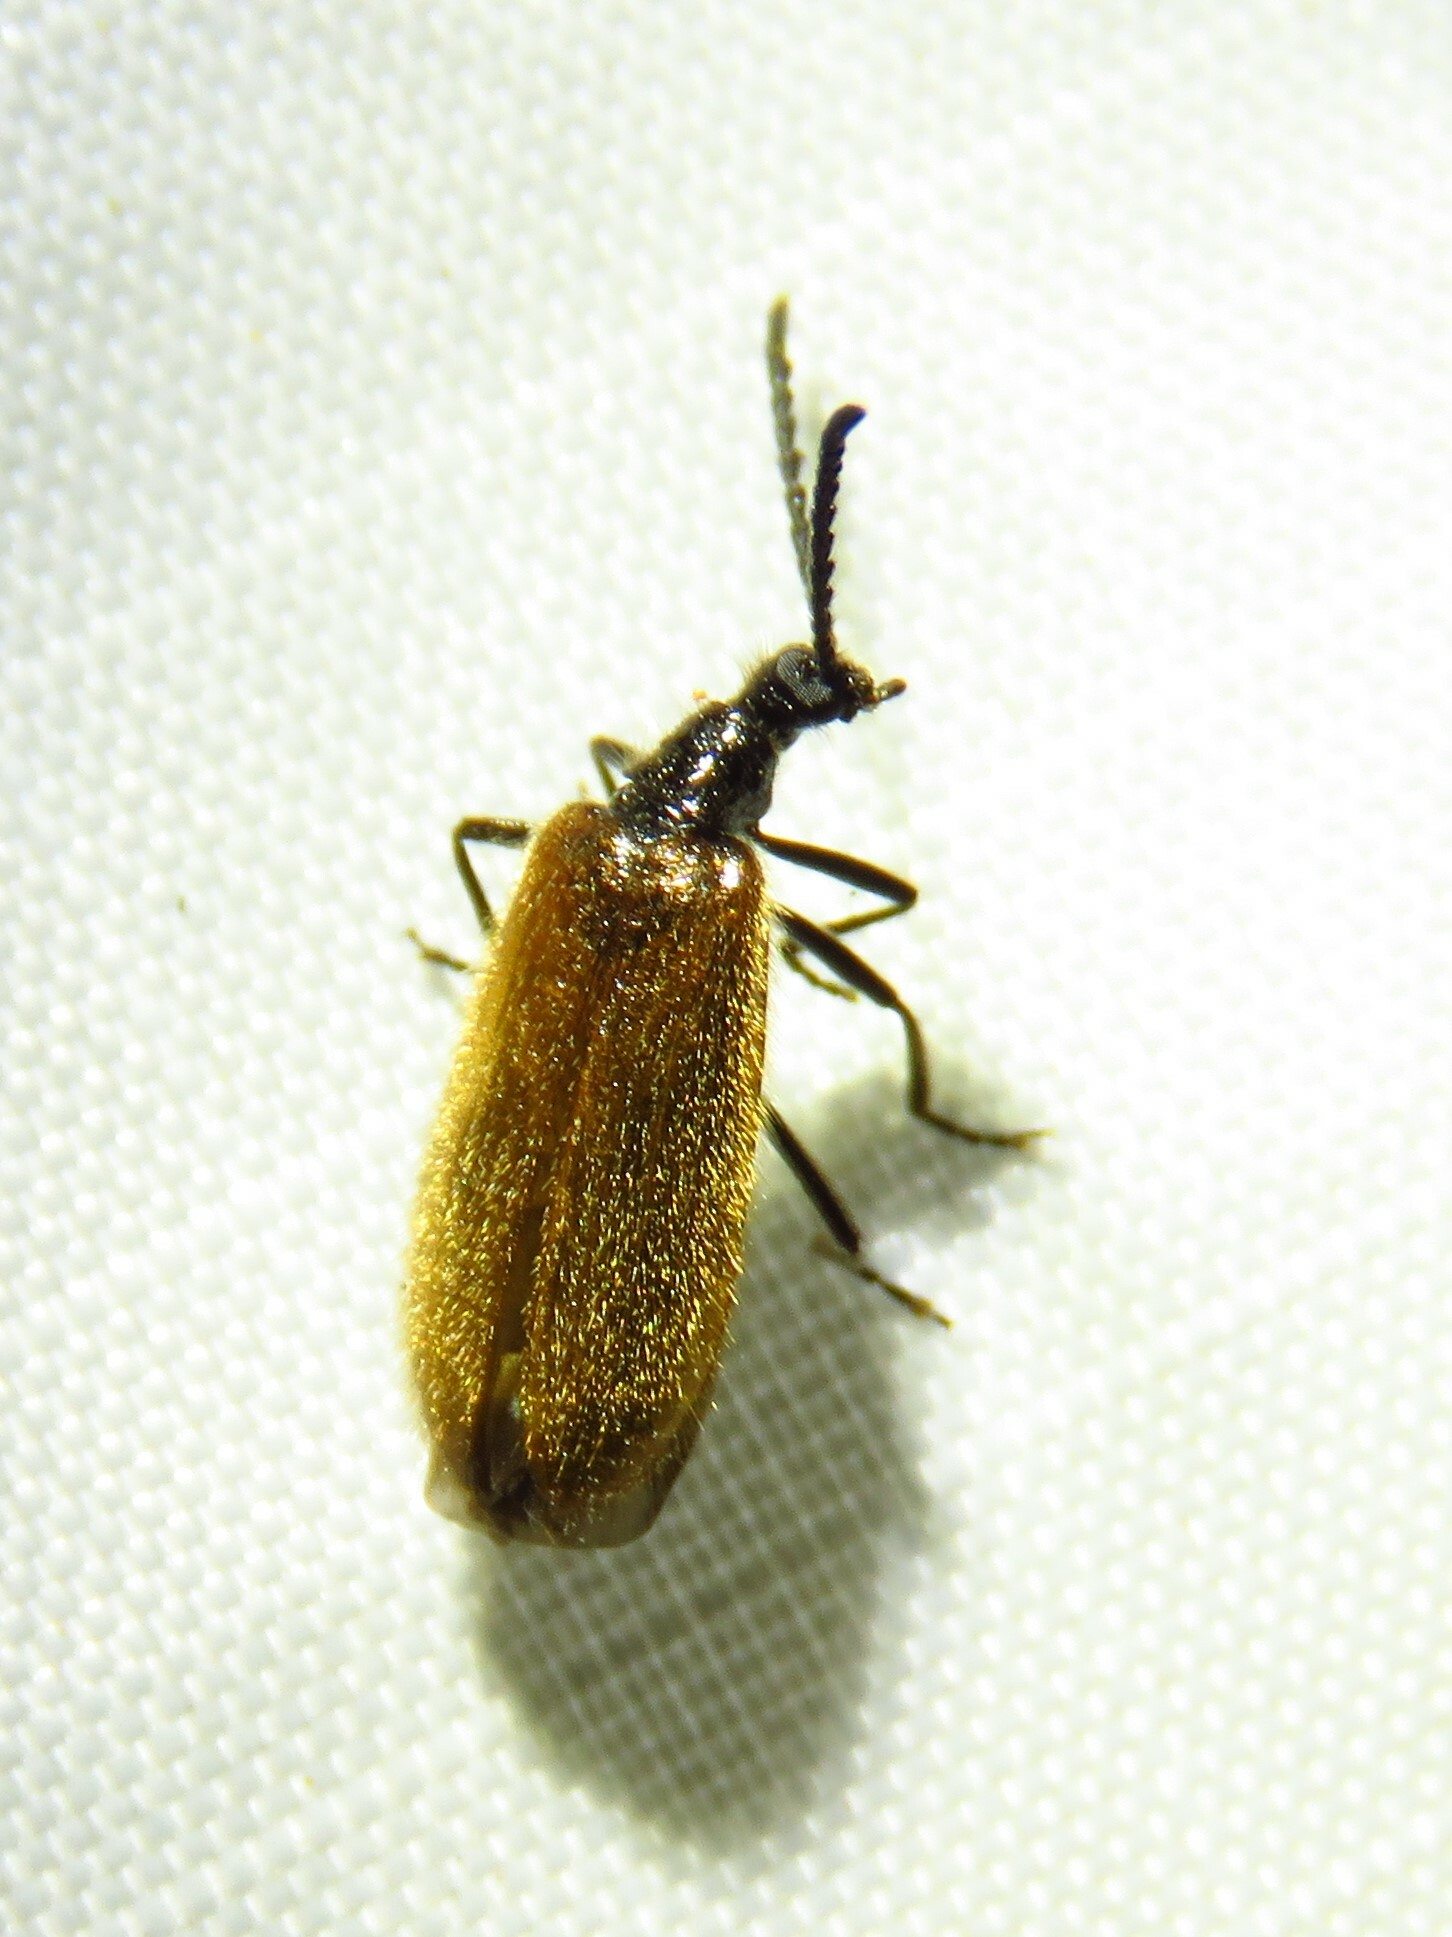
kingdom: Animalia
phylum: Arthropoda
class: Insecta
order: Coleoptera
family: Tenebrionidae
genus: Lagria
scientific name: Lagria hirta
